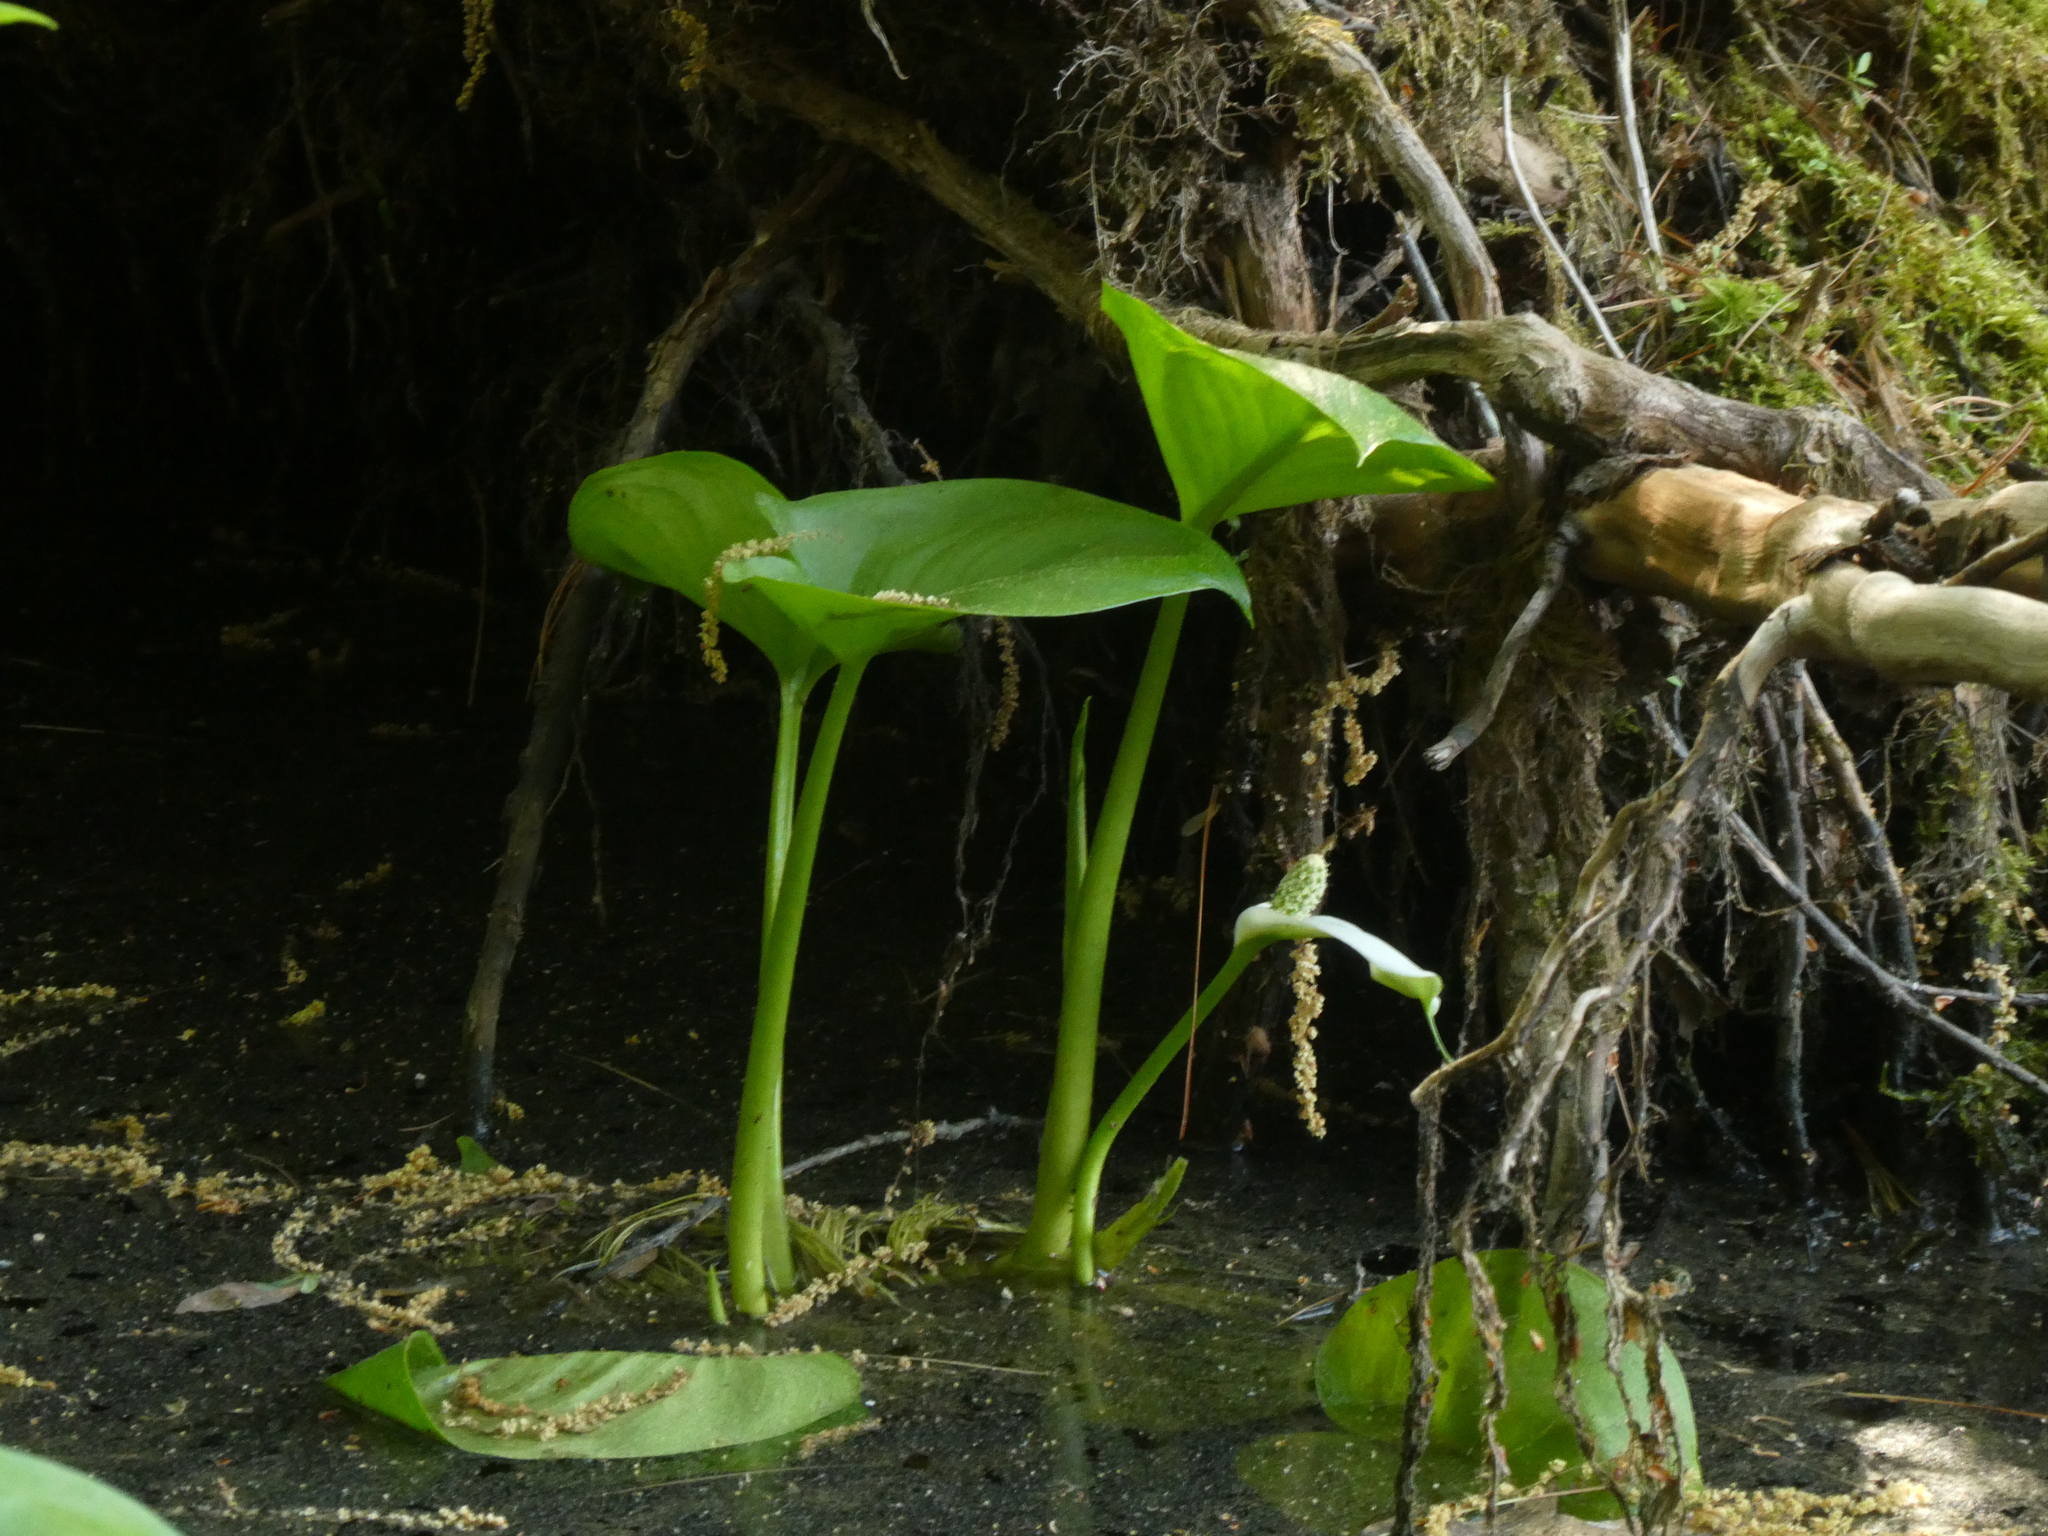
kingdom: Plantae
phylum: Tracheophyta
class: Liliopsida
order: Alismatales
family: Araceae
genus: Calla
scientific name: Calla palustris
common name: Bog arum
